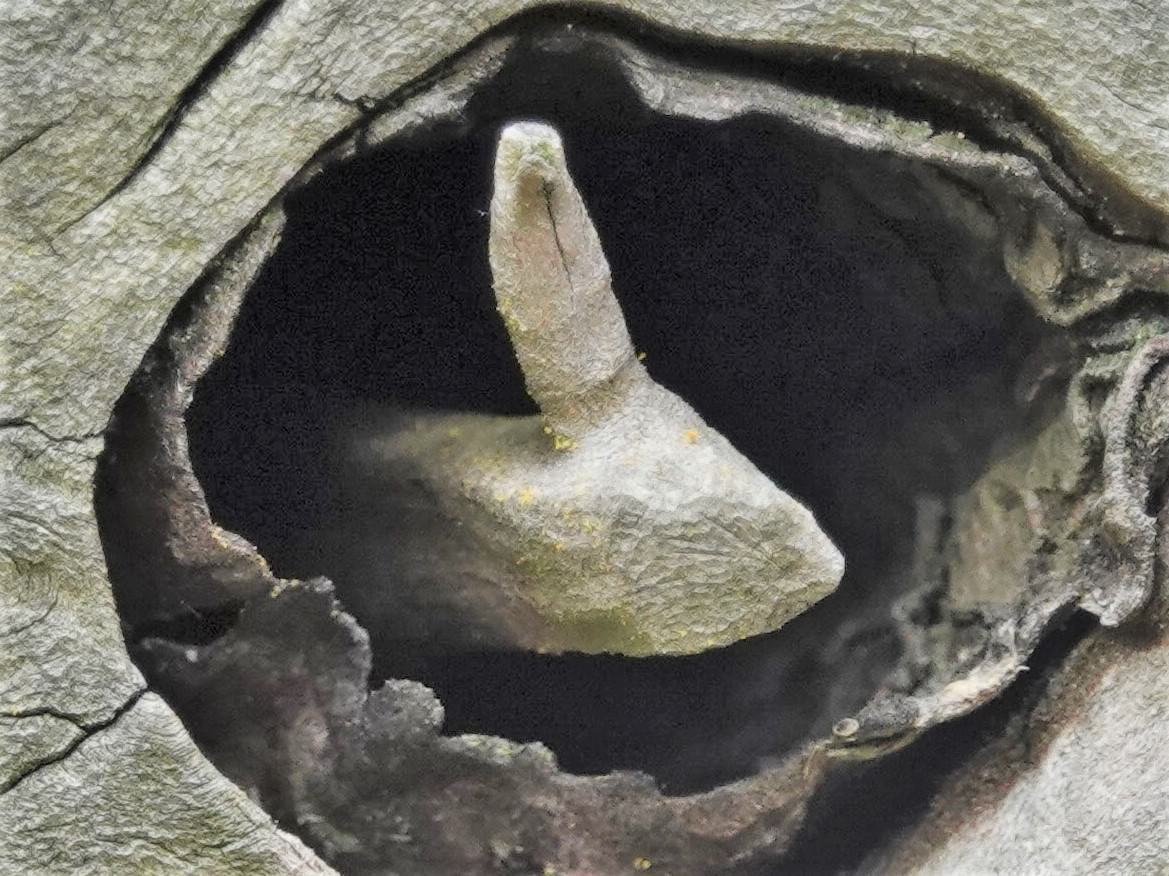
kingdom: Animalia
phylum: Arthropoda
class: Insecta
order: Hymenoptera
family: Megachilidae
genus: Anthidium
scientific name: Anthidium manicatum
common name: Wool carder bee
